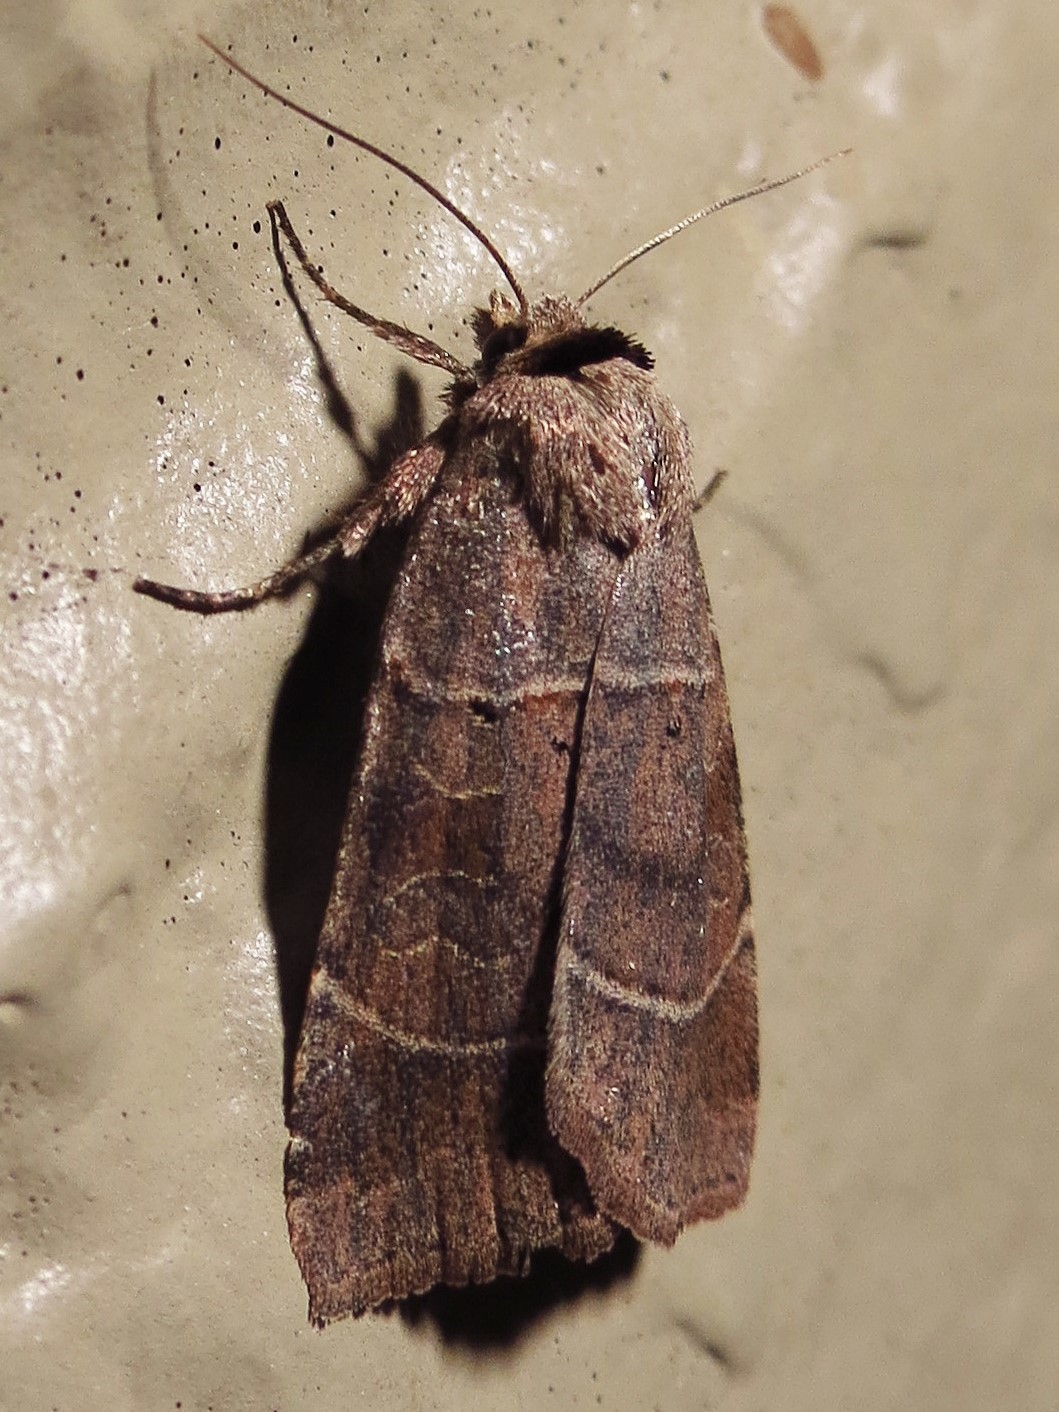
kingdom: Animalia
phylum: Arthropoda
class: Insecta
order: Lepidoptera
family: Noctuidae
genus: Agnorisma
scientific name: Agnorisma badinodis
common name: Pale-banded dart
